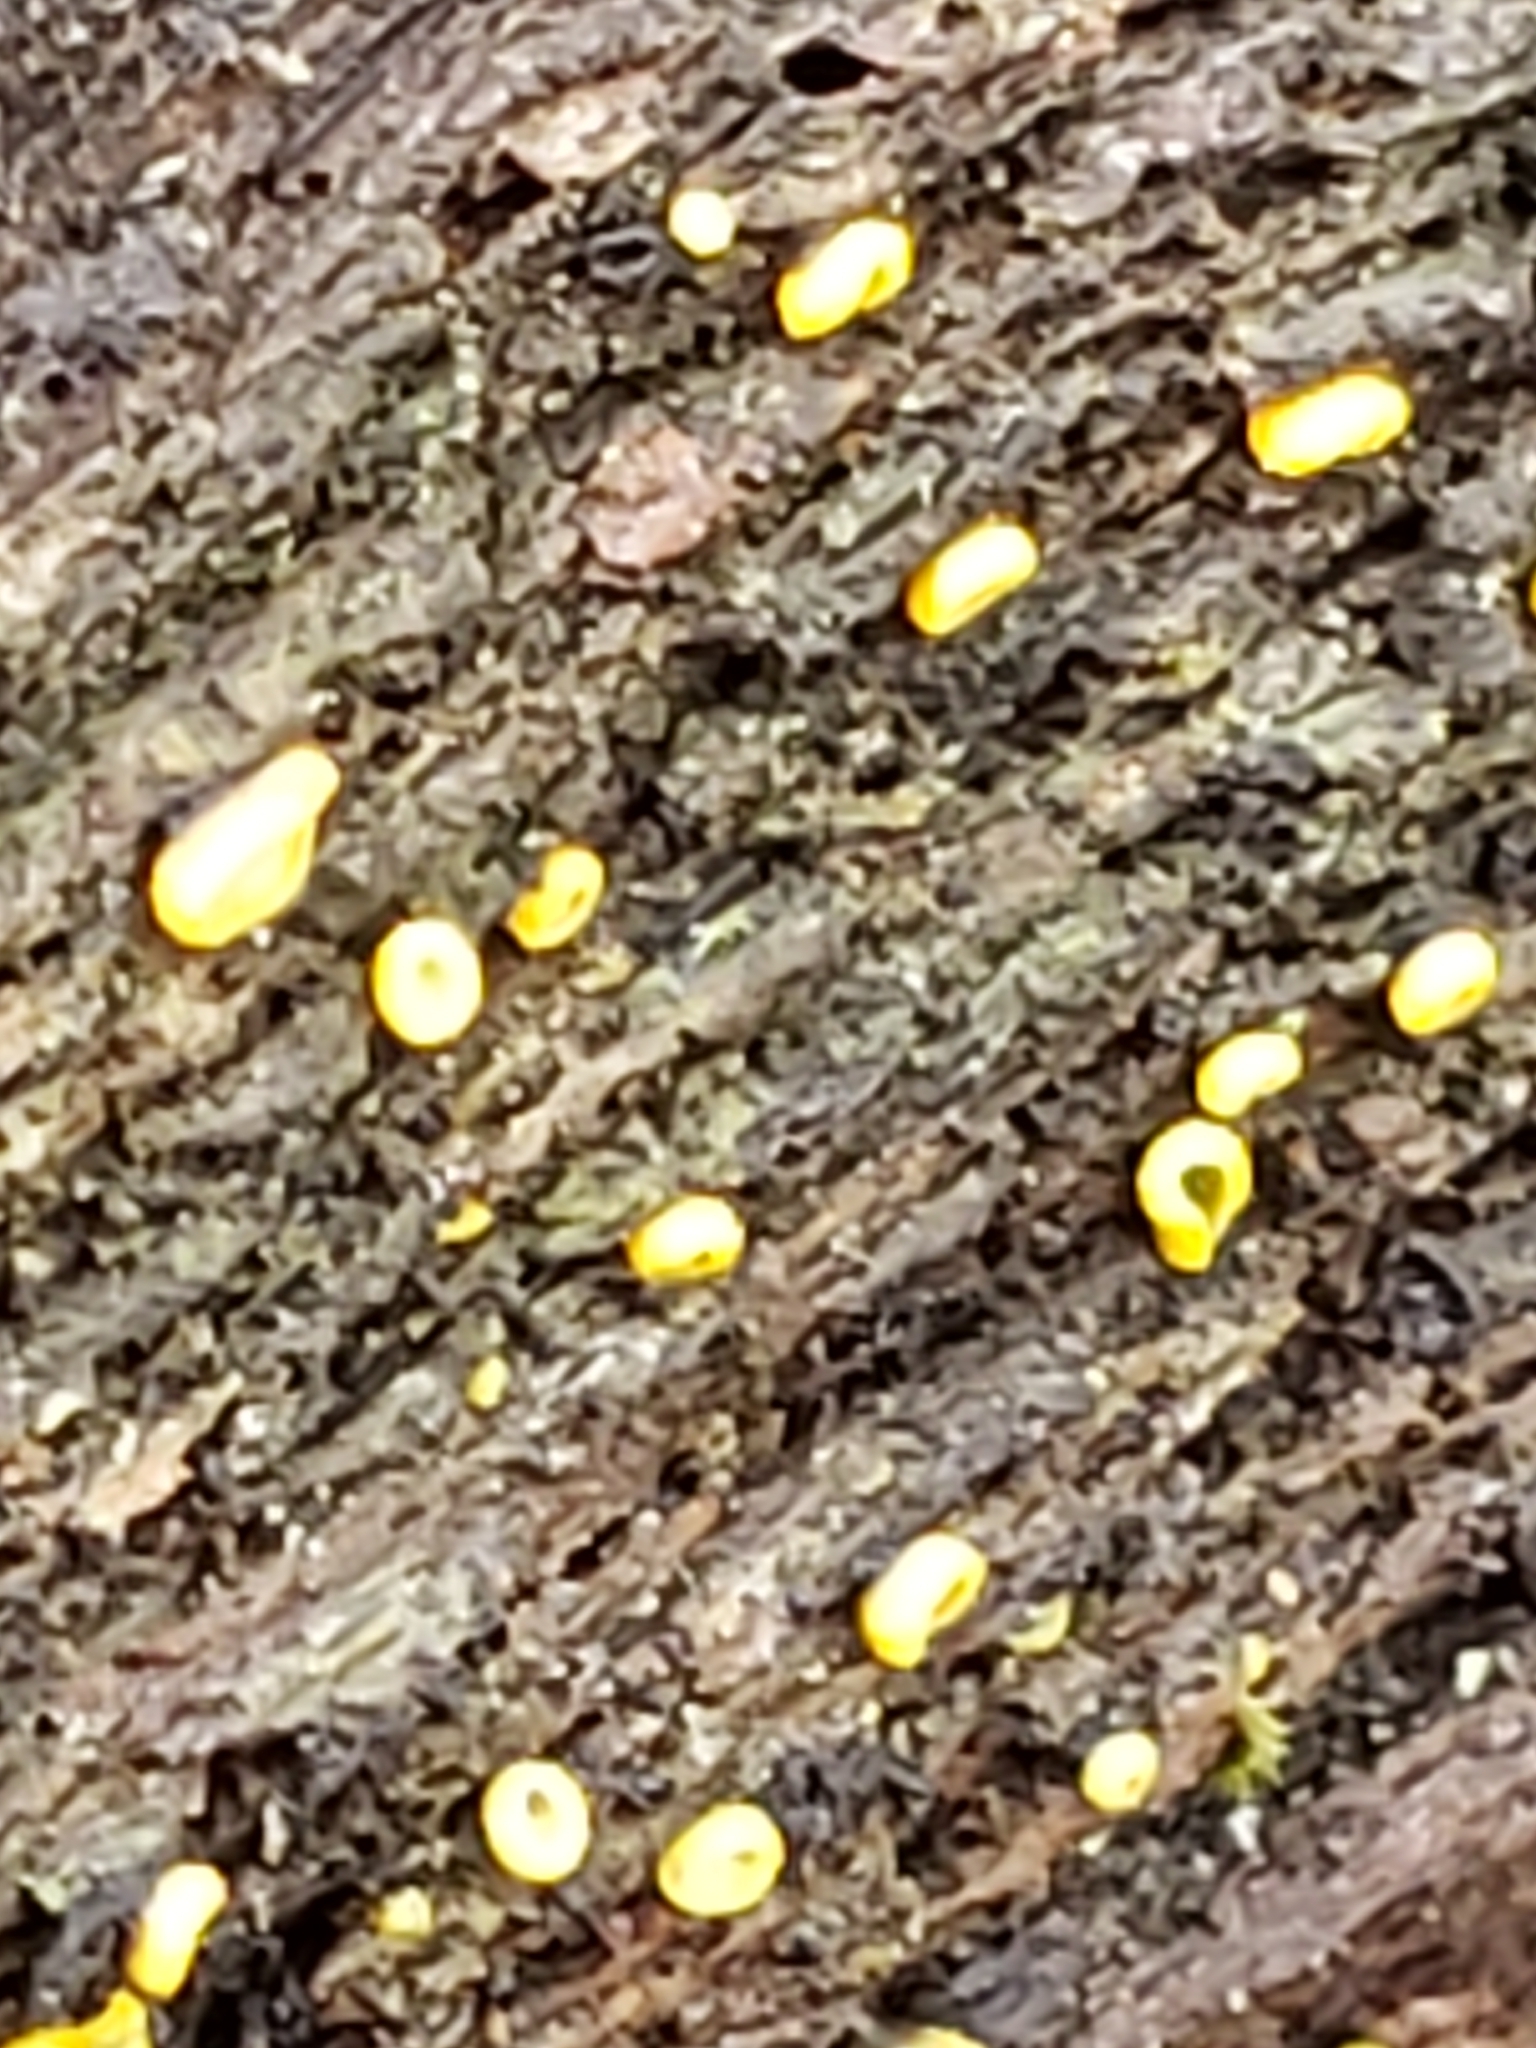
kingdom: Fungi
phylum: Ascomycota
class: Leotiomycetes
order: Helotiales
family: Chlorospleniaceae
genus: Chlorosplenium
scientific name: Chlorosplenium chlora
